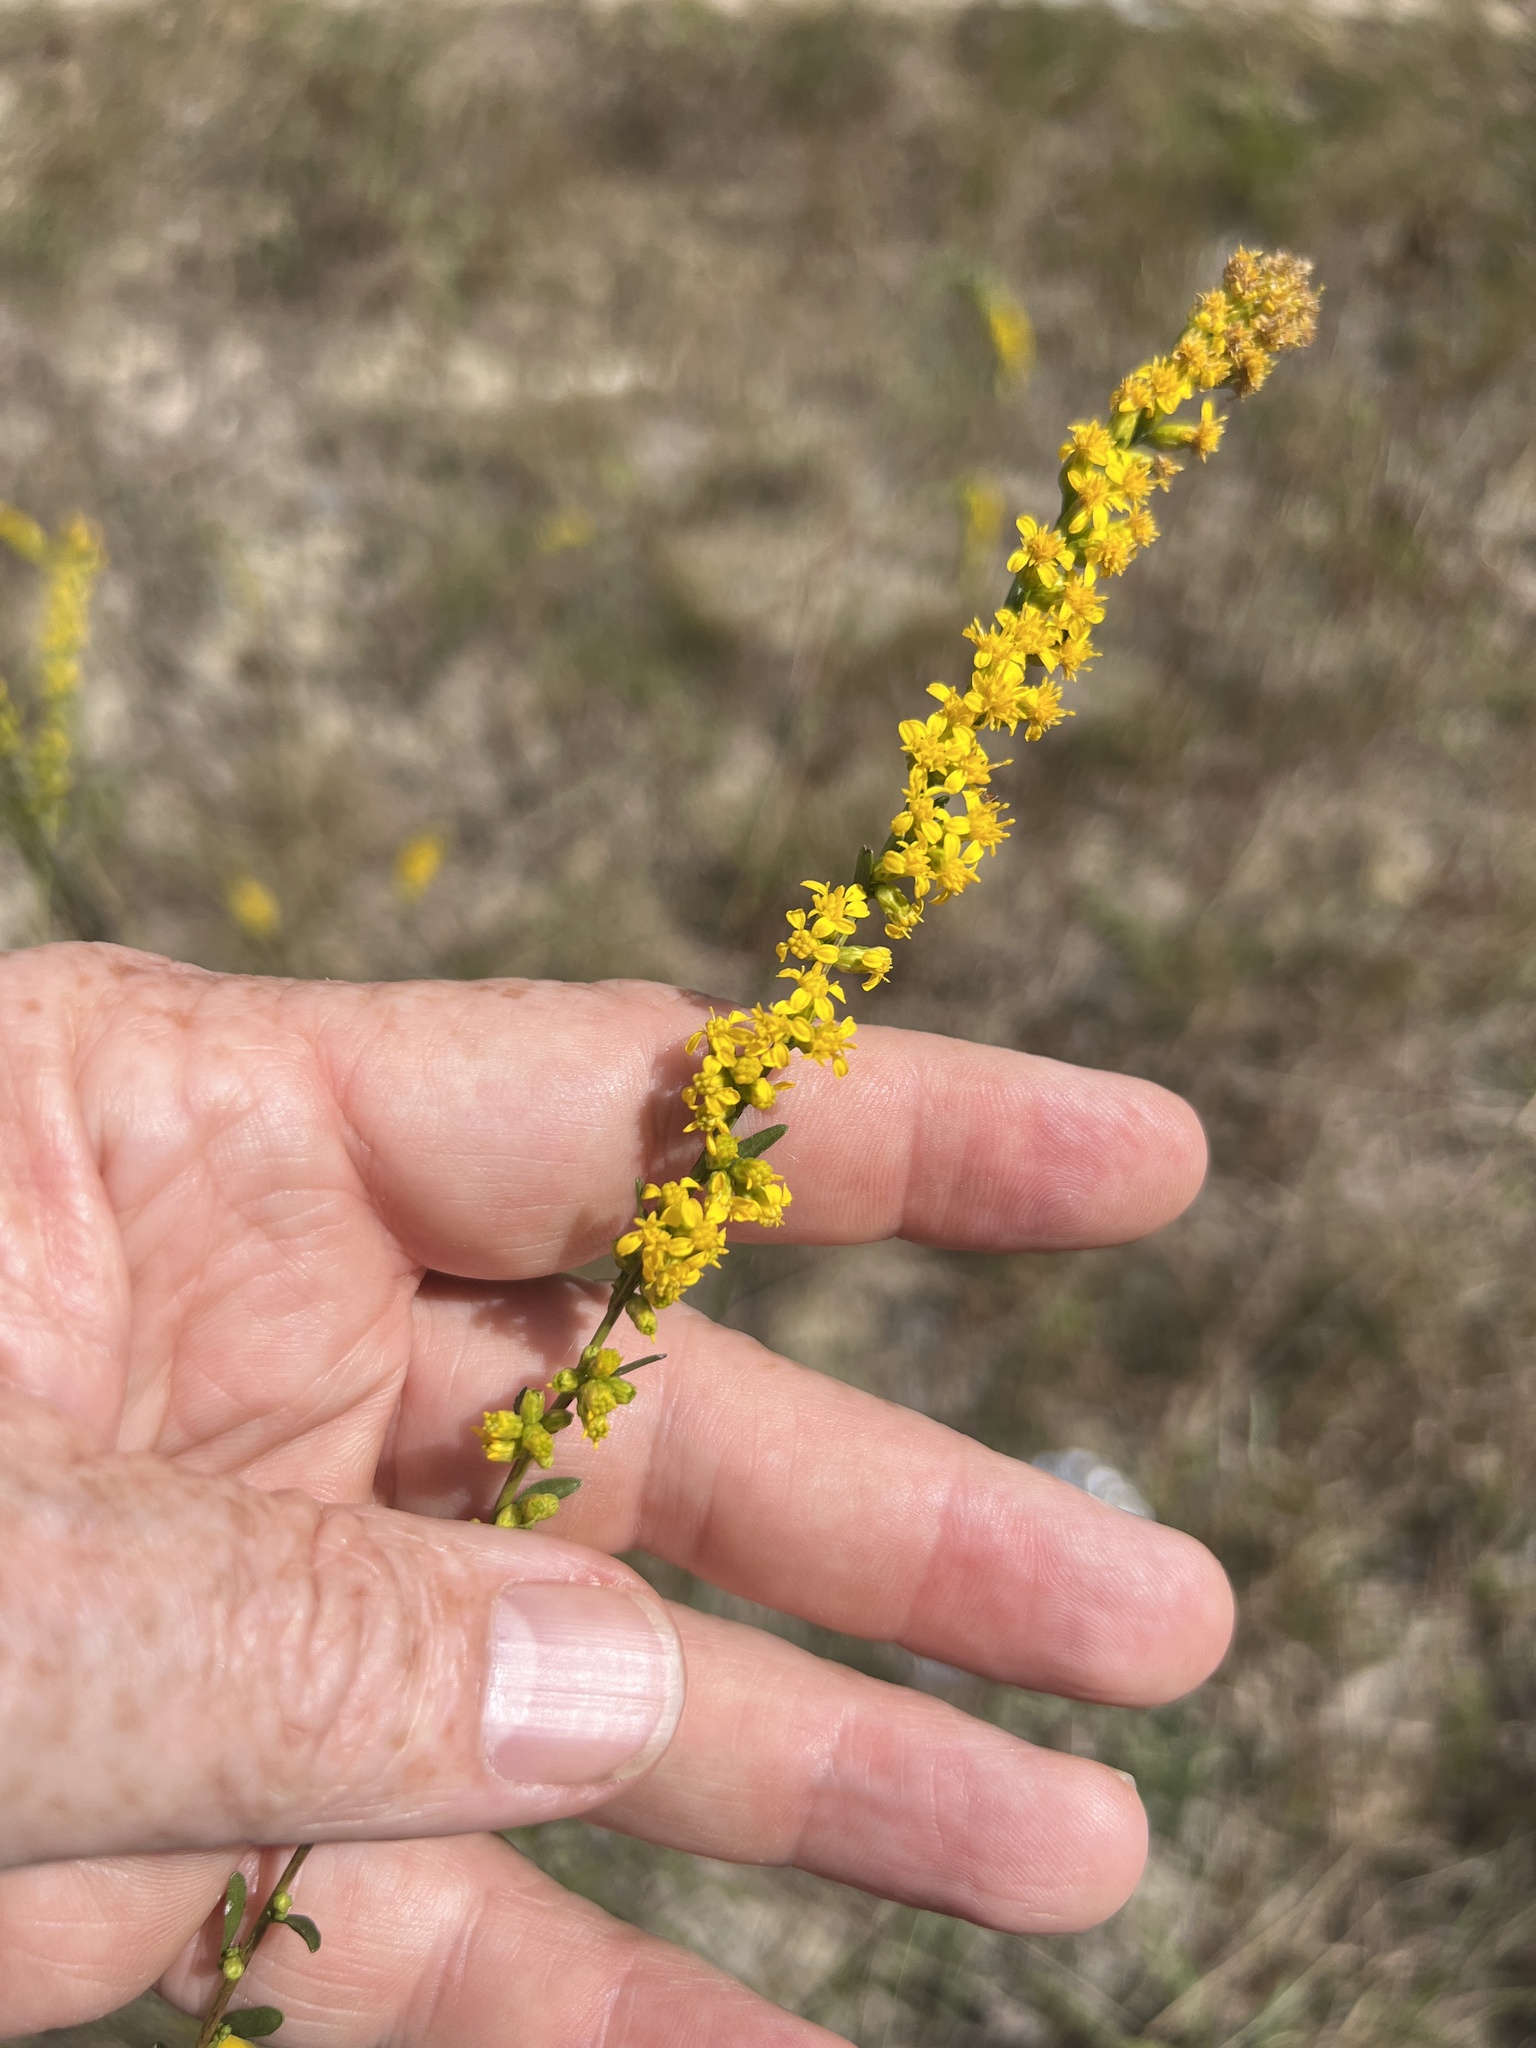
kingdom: Plantae
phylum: Tracheophyta
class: Magnoliopsida
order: Asterales
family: Asteraceae
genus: Solidago
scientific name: Solidago austrina
